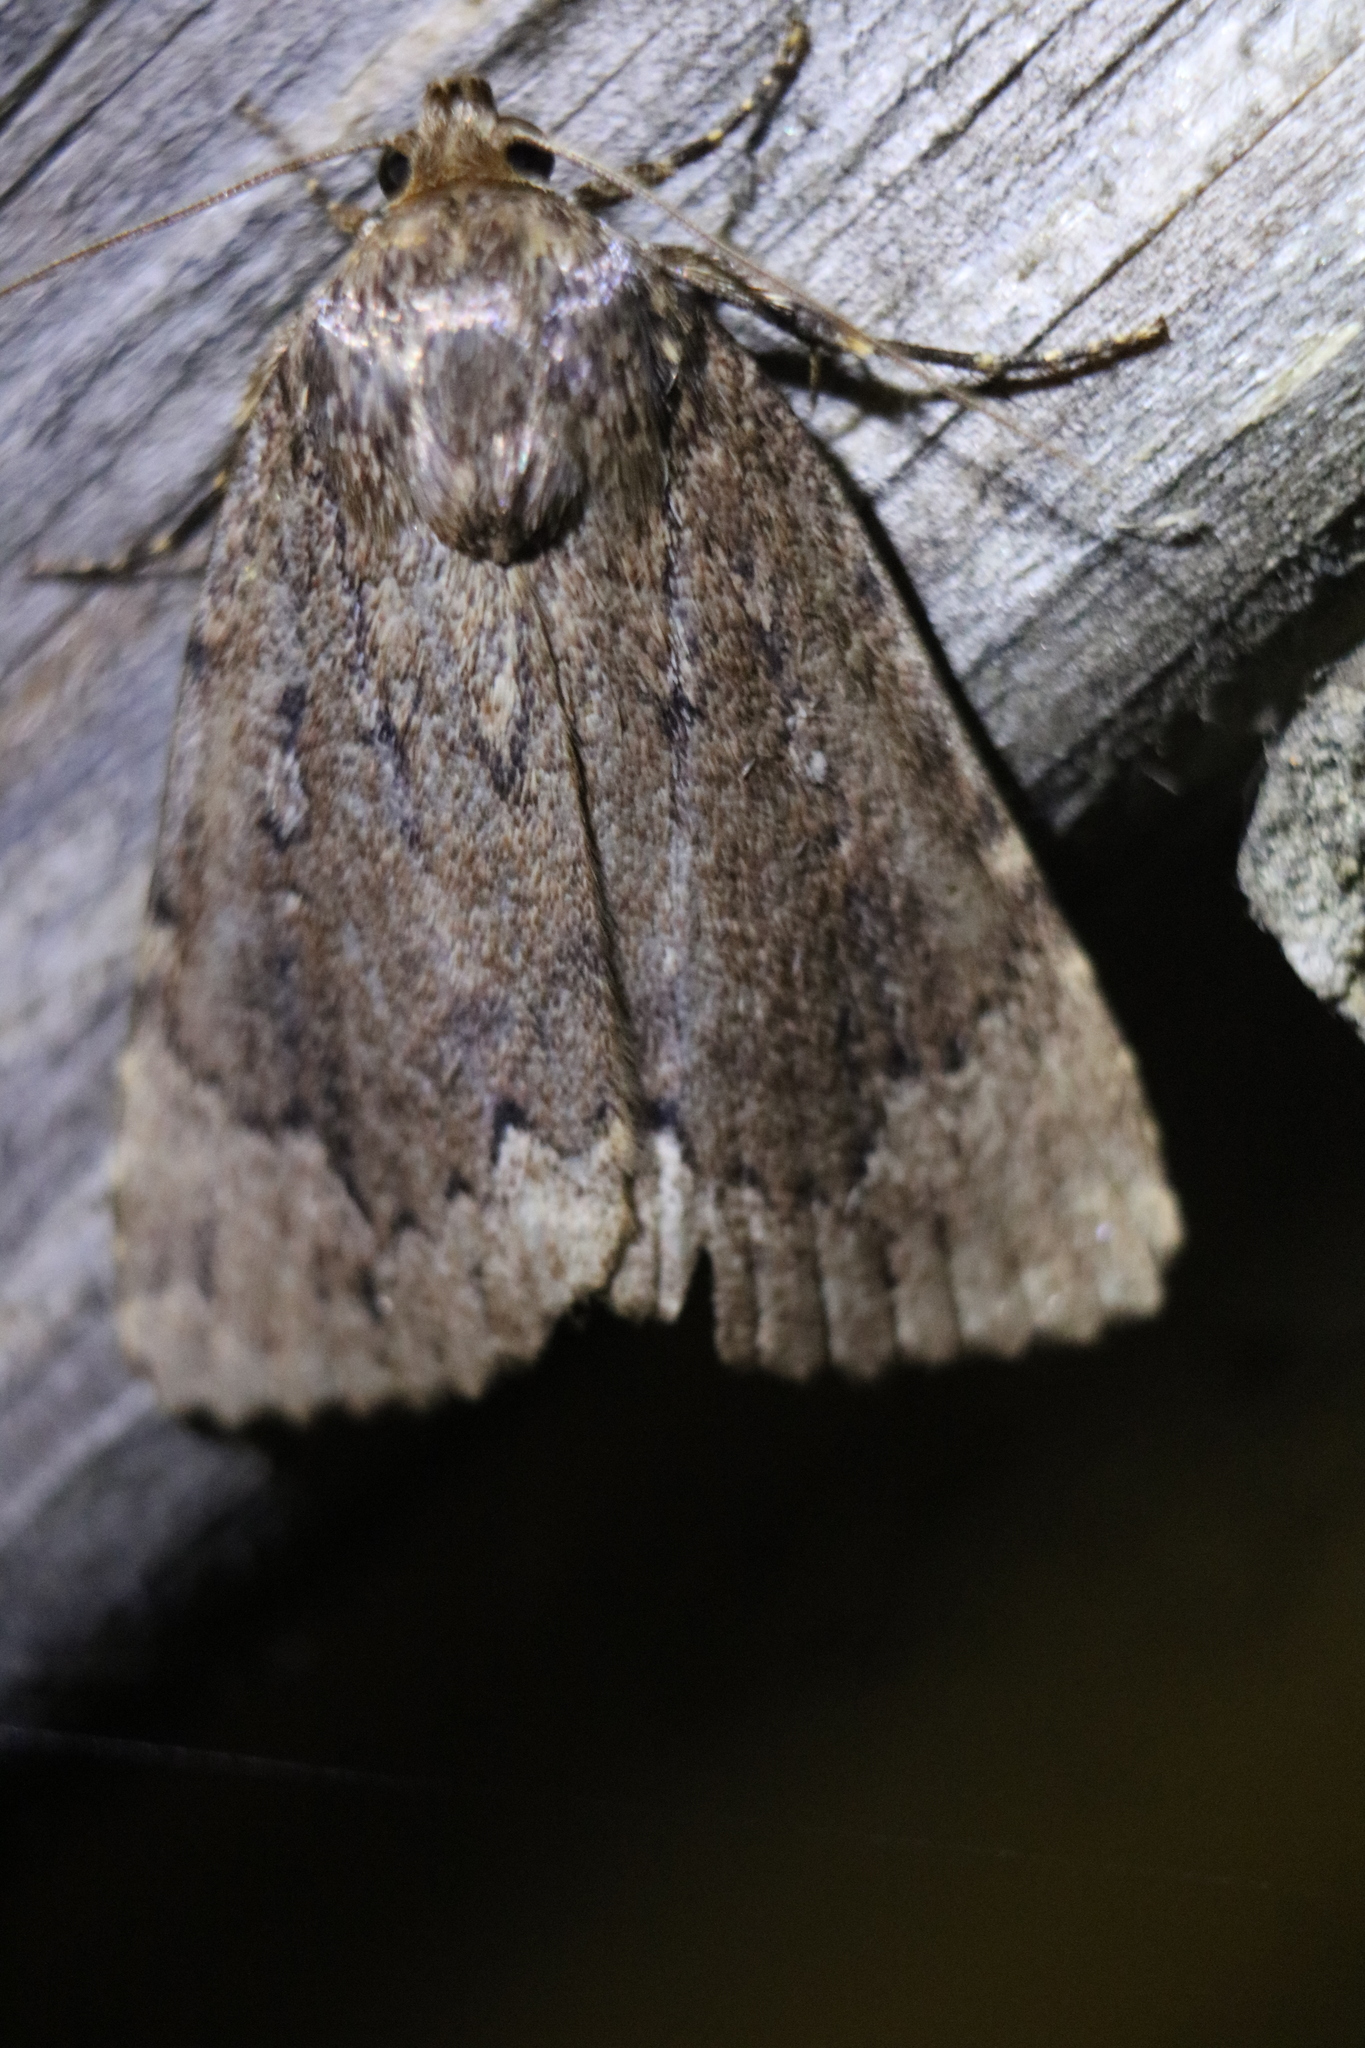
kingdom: Animalia
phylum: Arthropoda
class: Insecta
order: Lepidoptera
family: Noctuidae
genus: Amphipyra
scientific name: Amphipyra pyramidoides
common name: American copper underwing
